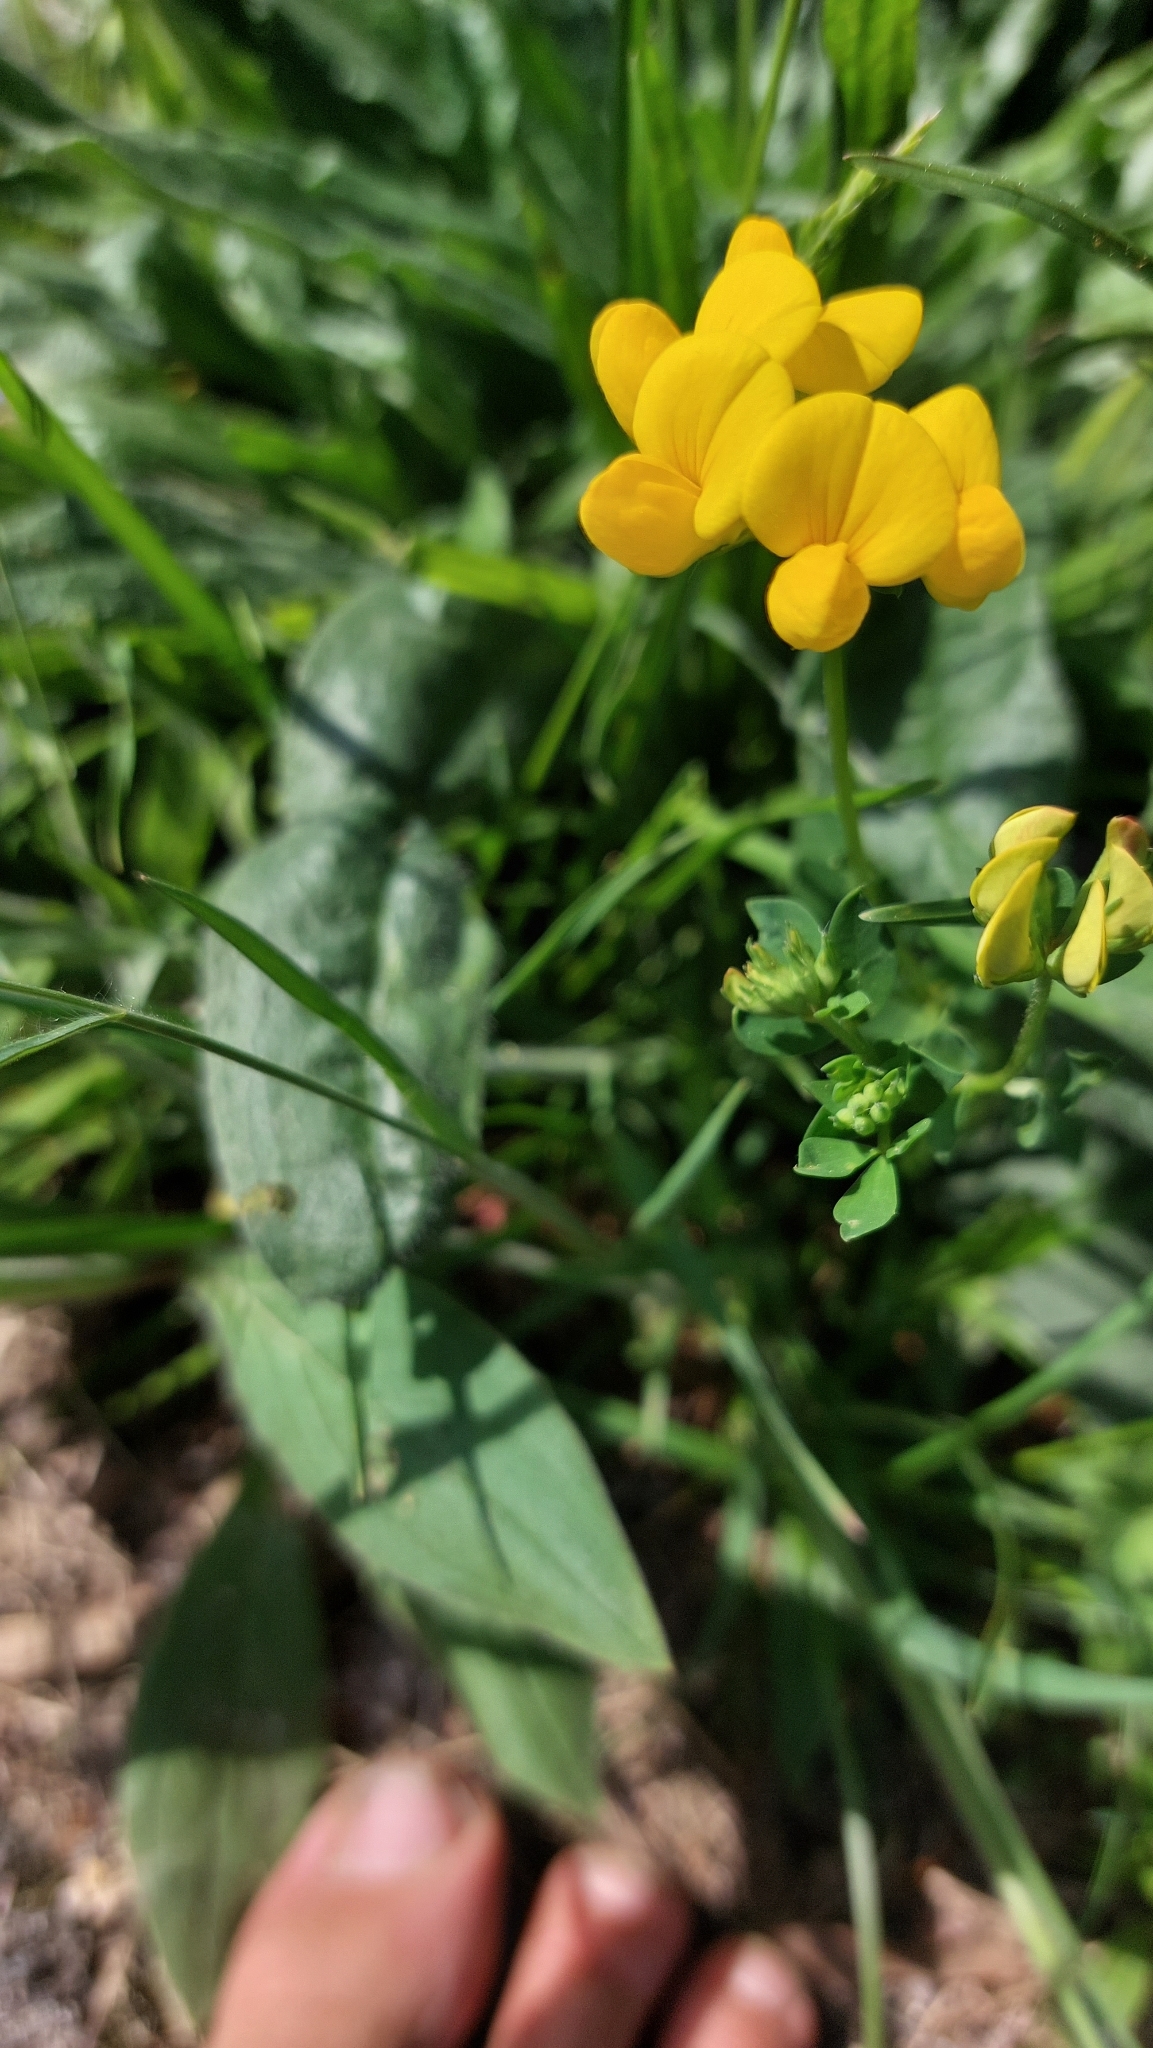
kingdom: Plantae
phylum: Tracheophyta
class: Magnoliopsida
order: Fabales
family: Fabaceae
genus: Lotus
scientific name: Lotus corniculatus
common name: Common bird's-foot-trefoil
